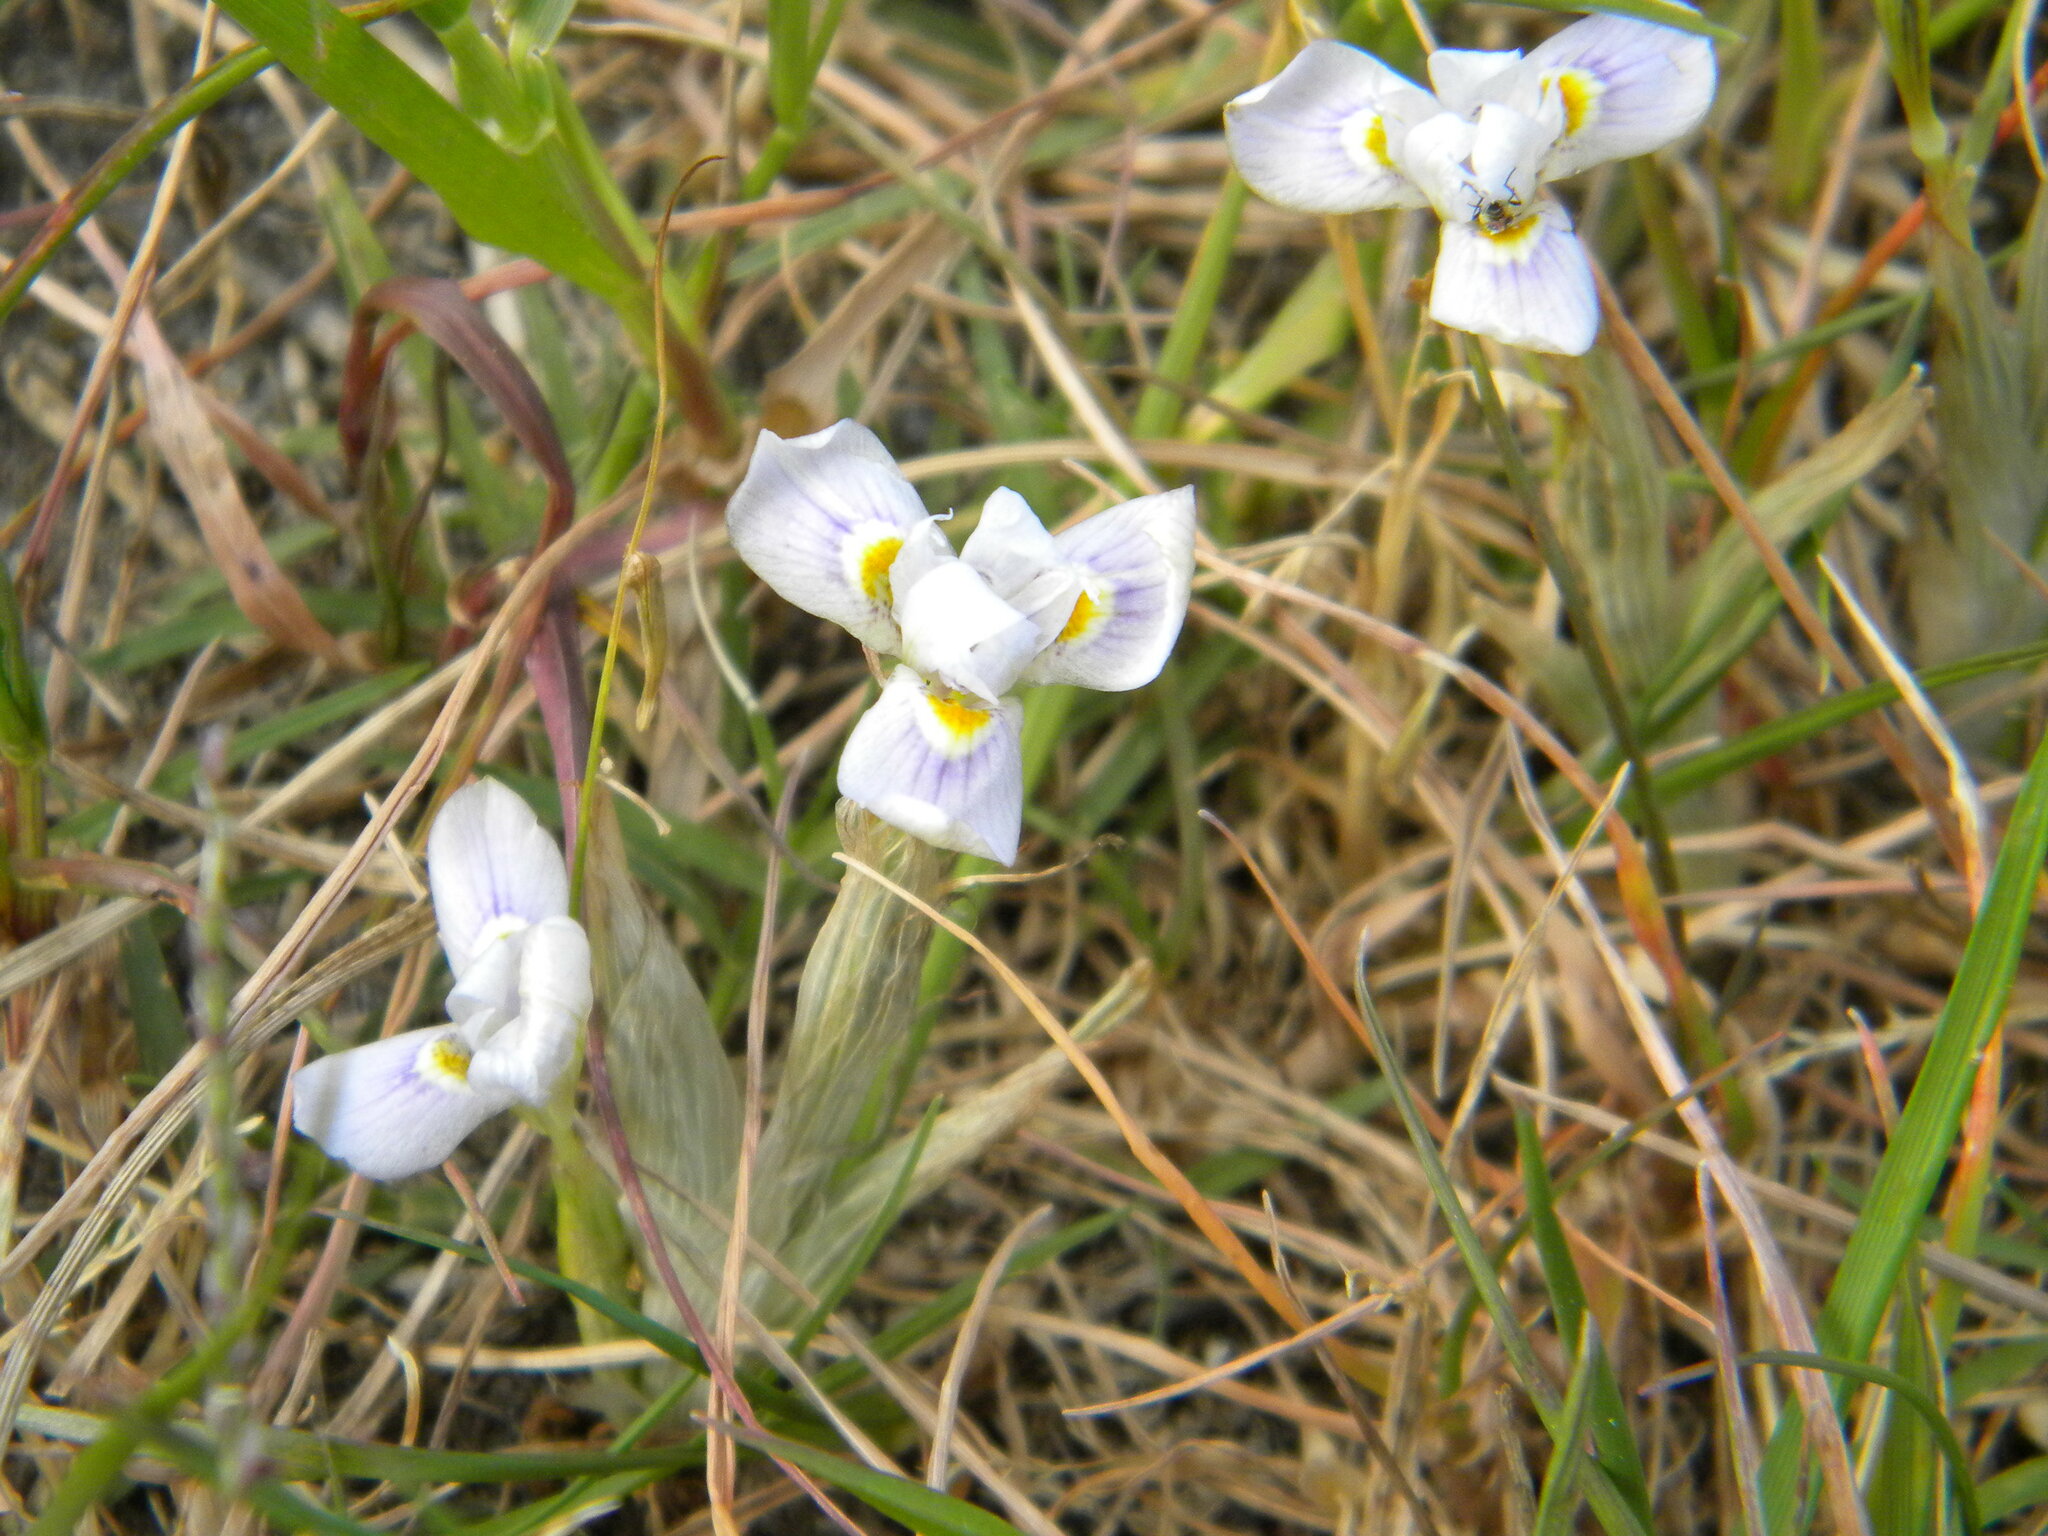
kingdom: Plantae
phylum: Tracheophyta
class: Liliopsida
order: Asparagales
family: Iridaceae
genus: Moraea
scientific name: Moraea setifolia
